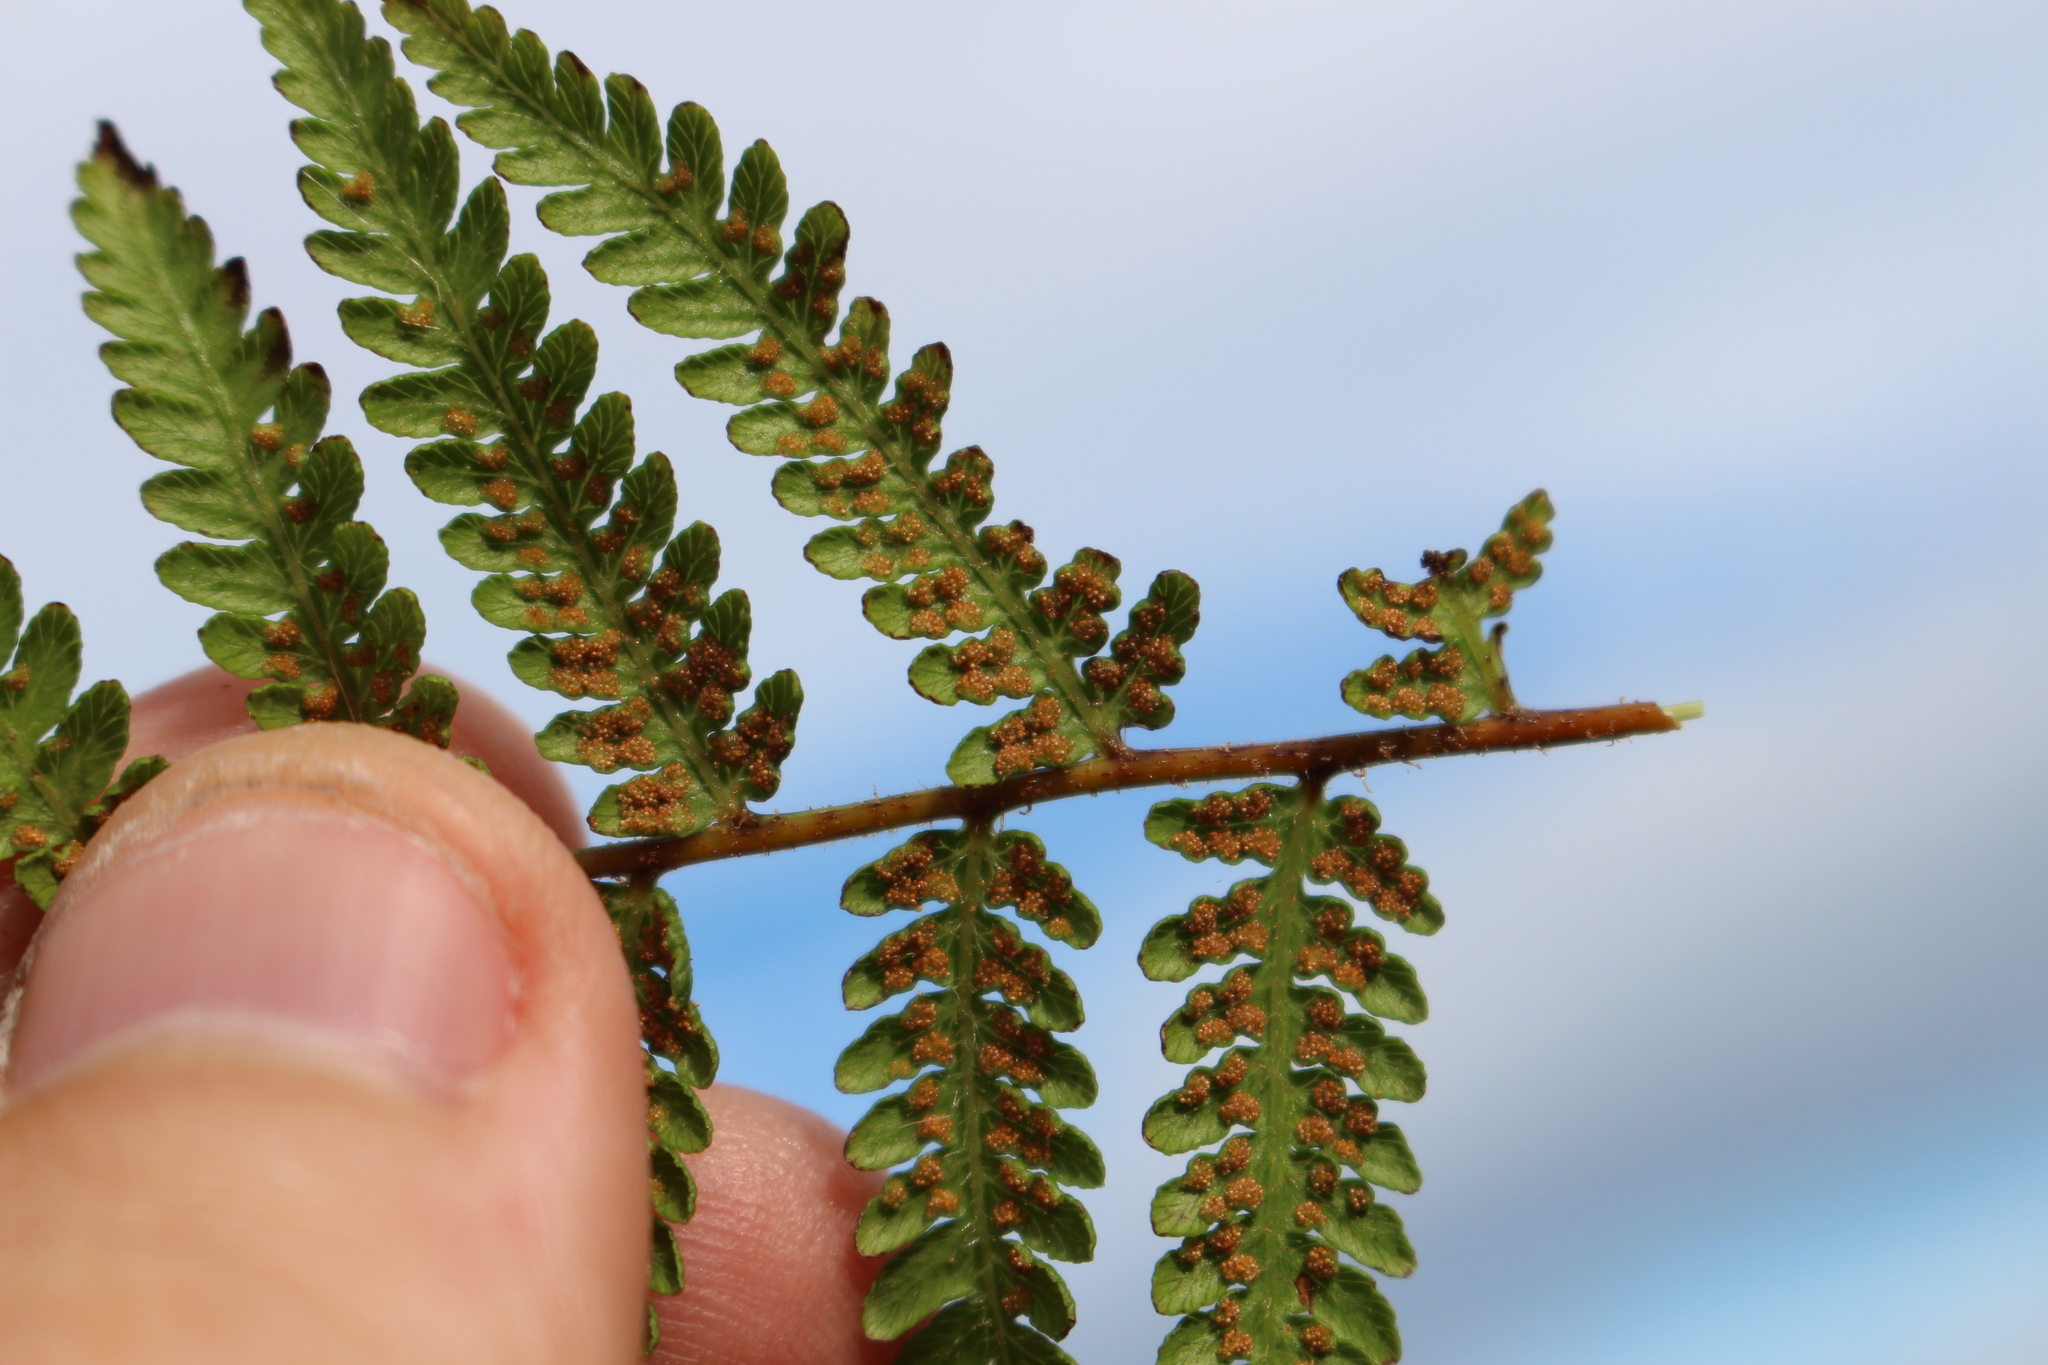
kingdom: Plantae
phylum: Tracheophyta
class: Polypodiopsida
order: Polypodiales
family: Dennstaedtiaceae
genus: Hypolepis
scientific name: Hypolepis ambigua
